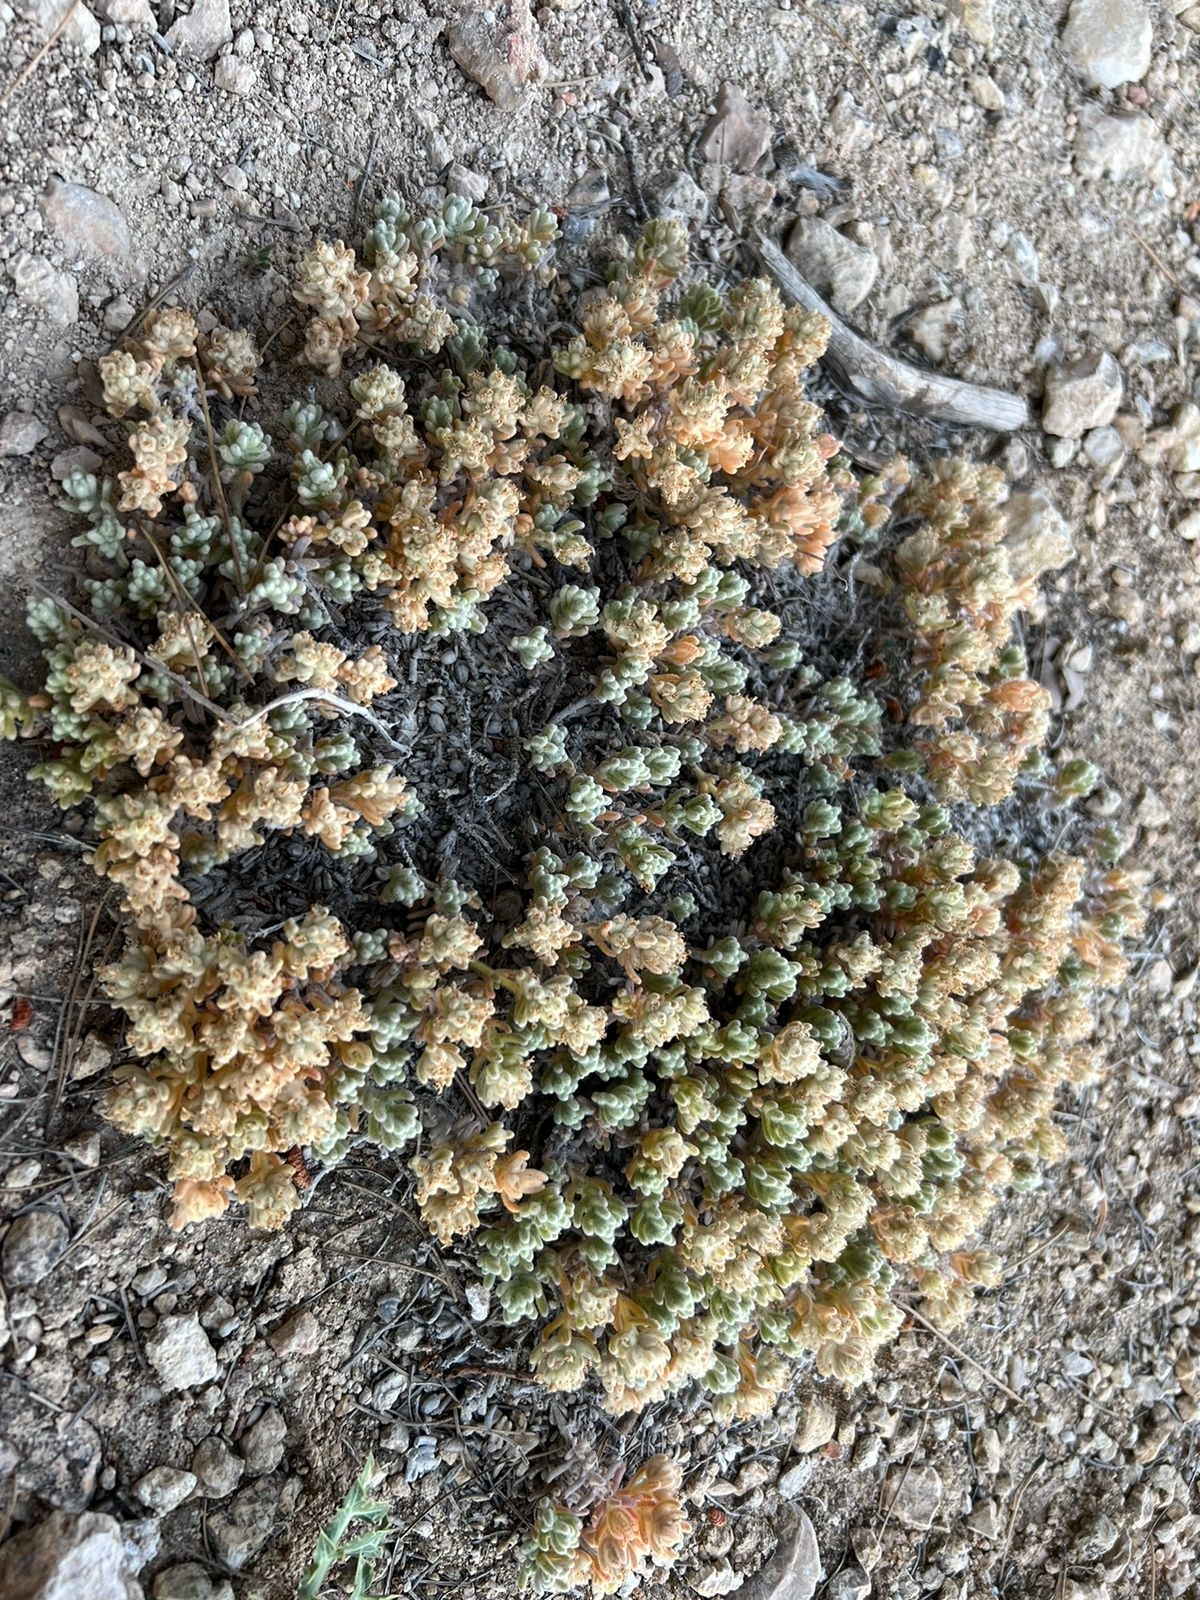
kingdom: Plantae
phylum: Tracheophyta
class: Magnoliopsida
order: Lamiales
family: Lamiaceae
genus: Teucrium
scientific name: Teucrium gnaphalodes
